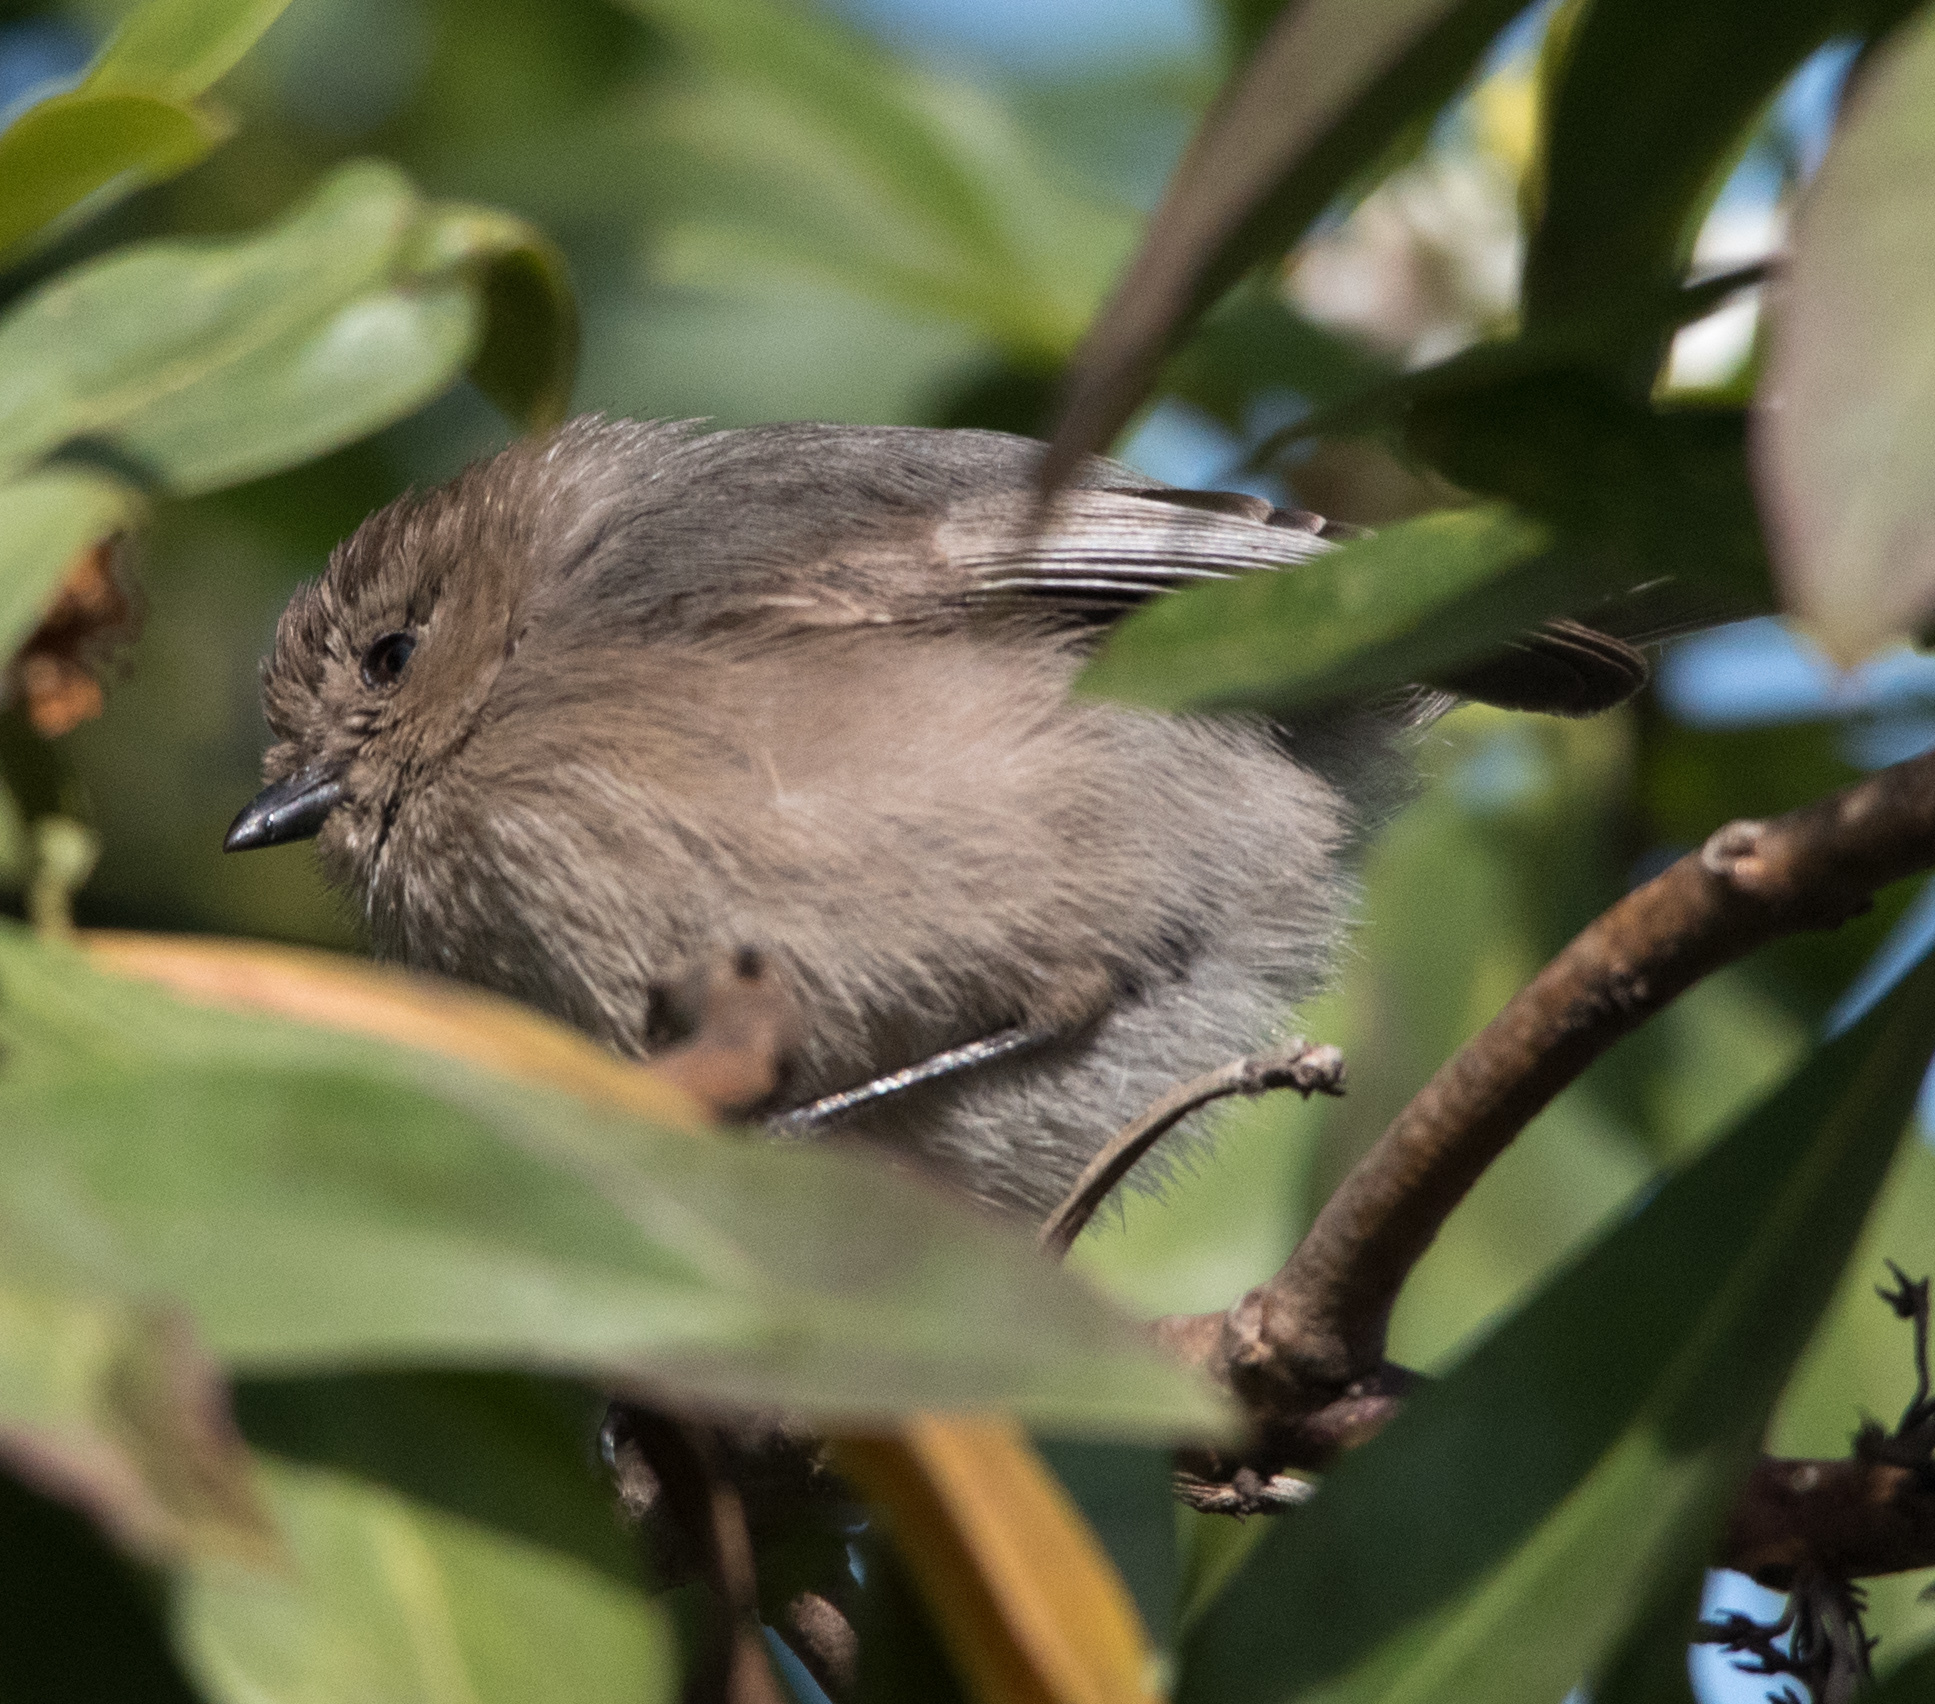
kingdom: Animalia
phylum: Chordata
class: Aves
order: Passeriformes
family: Aegithalidae
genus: Psaltriparus
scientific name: Psaltriparus minimus
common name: American bushtit
